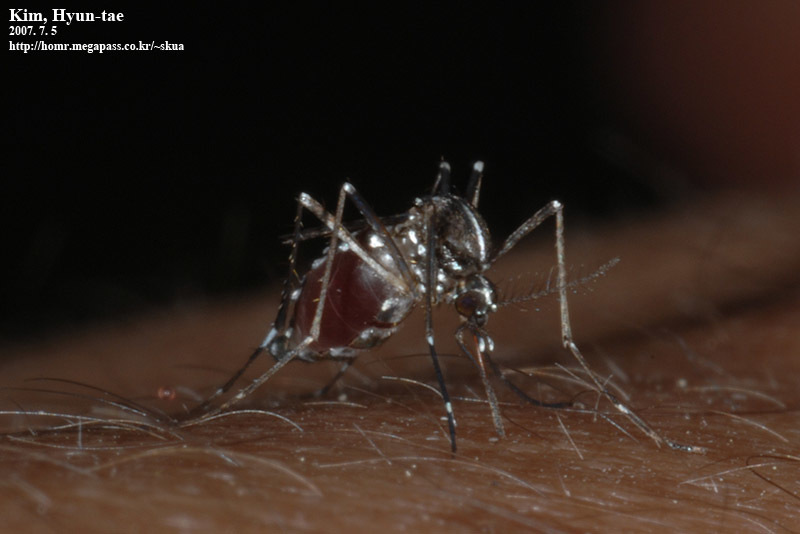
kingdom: Animalia
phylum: Arthropoda
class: Insecta
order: Diptera
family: Culicidae
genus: Aedes
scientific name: Aedes albopictus
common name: Tiger mosquito
